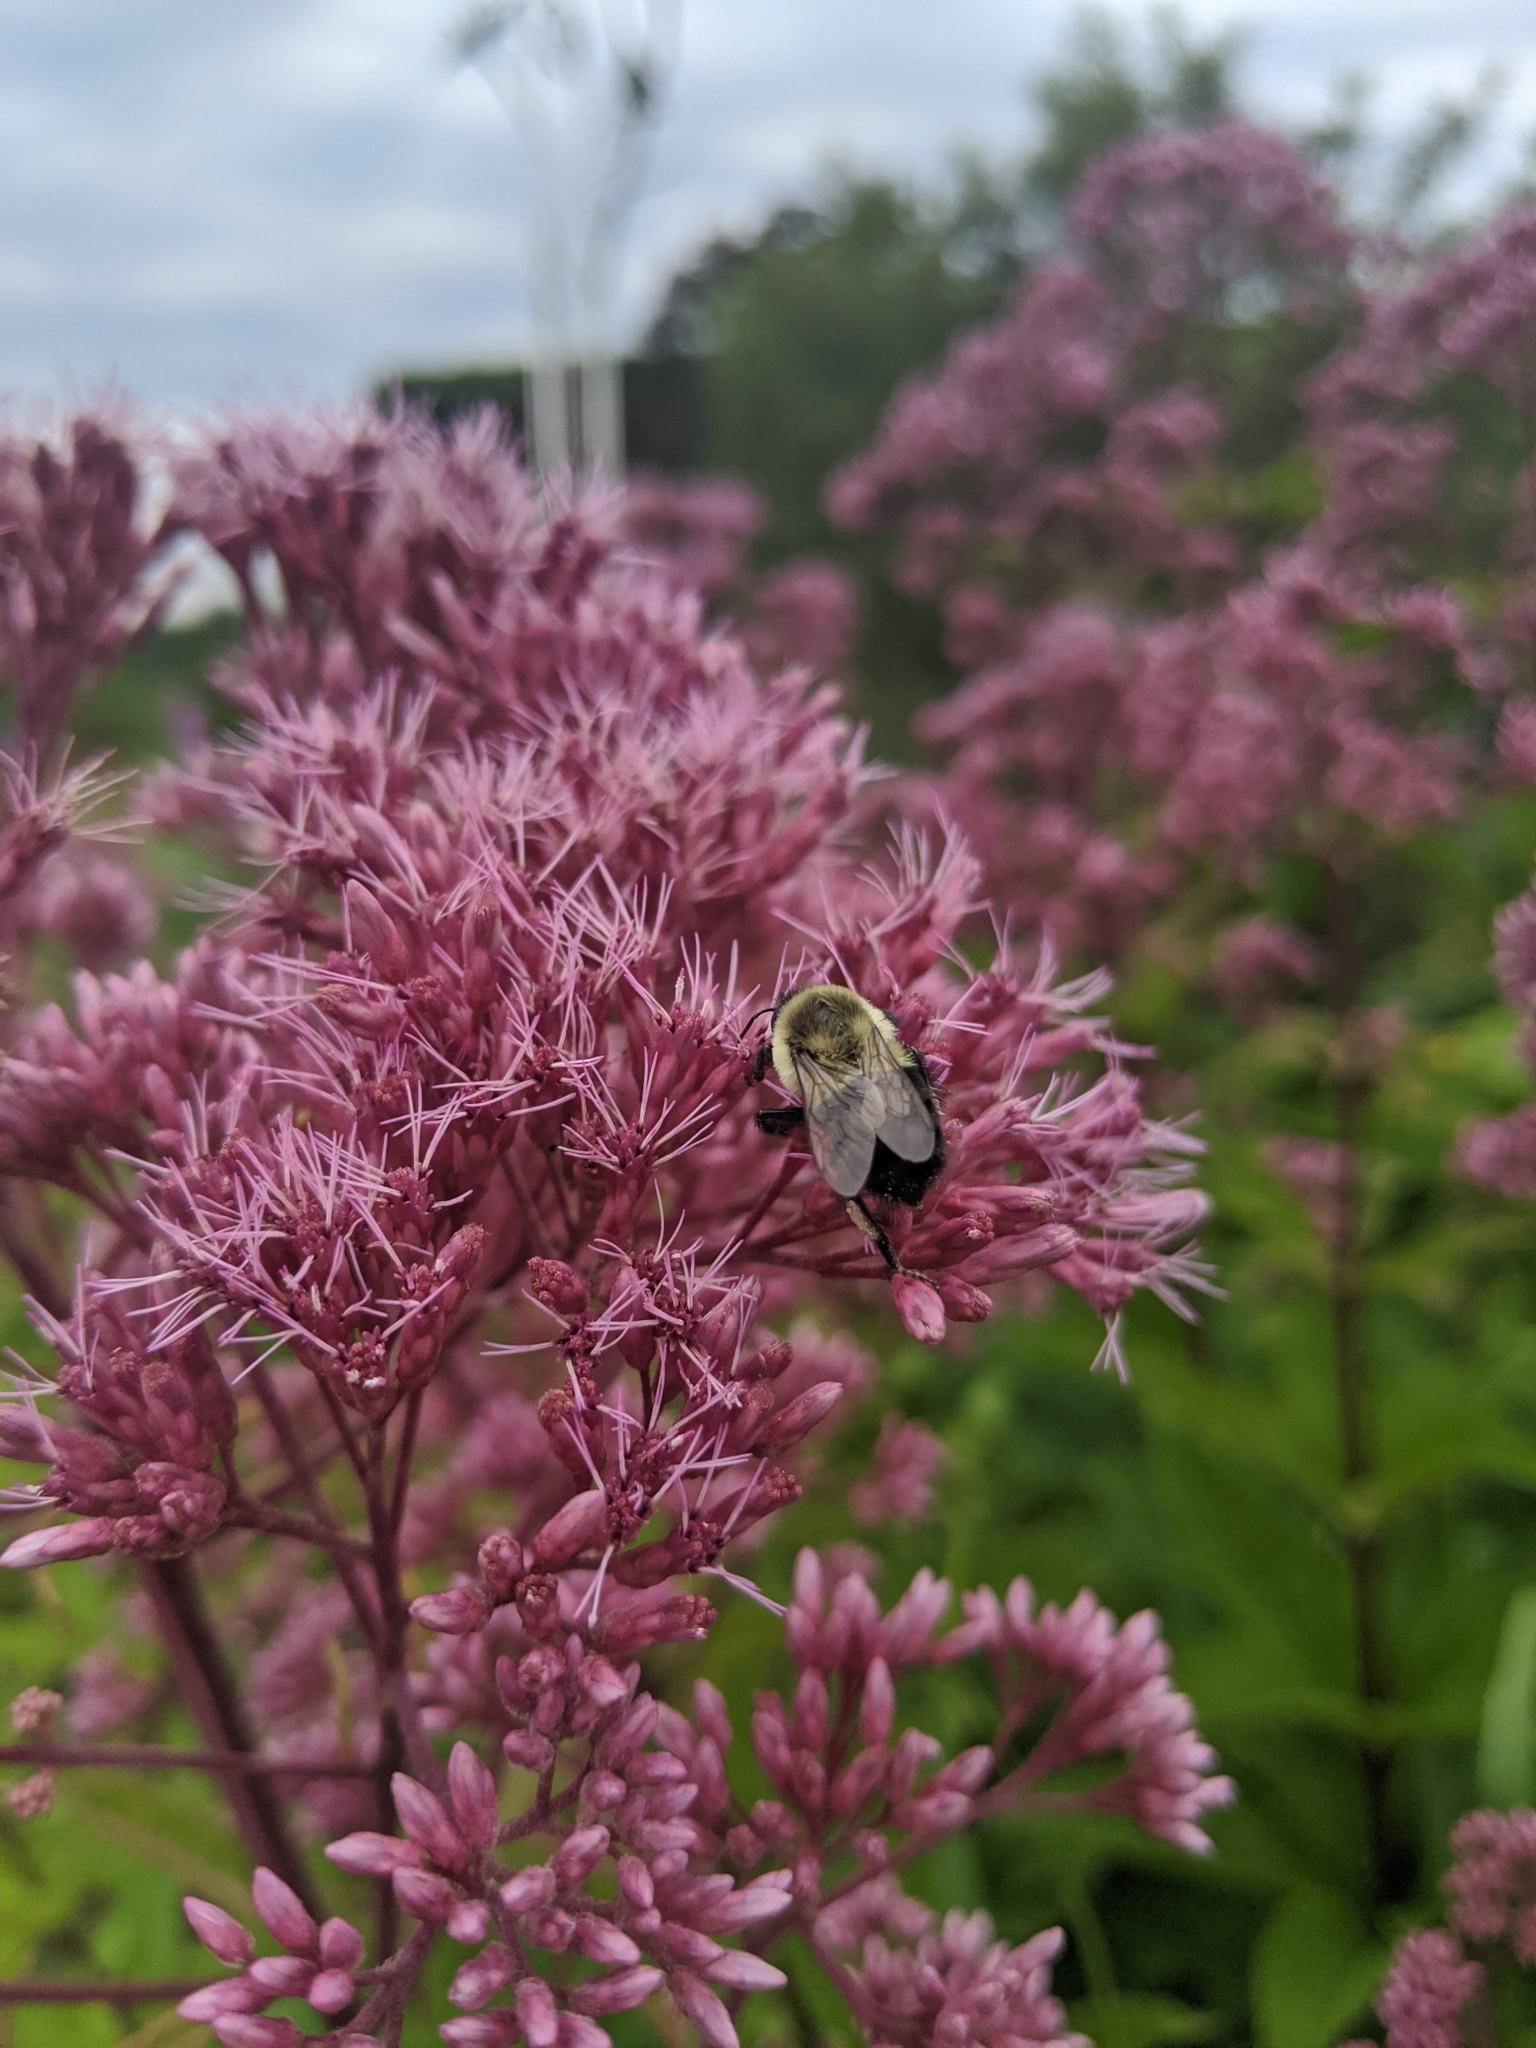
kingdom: Animalia
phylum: Arthropoda
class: Insecta
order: Hymenoptera
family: Apidae
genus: Bombus
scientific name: Bombus impatiens
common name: Common eastern bumble bee
